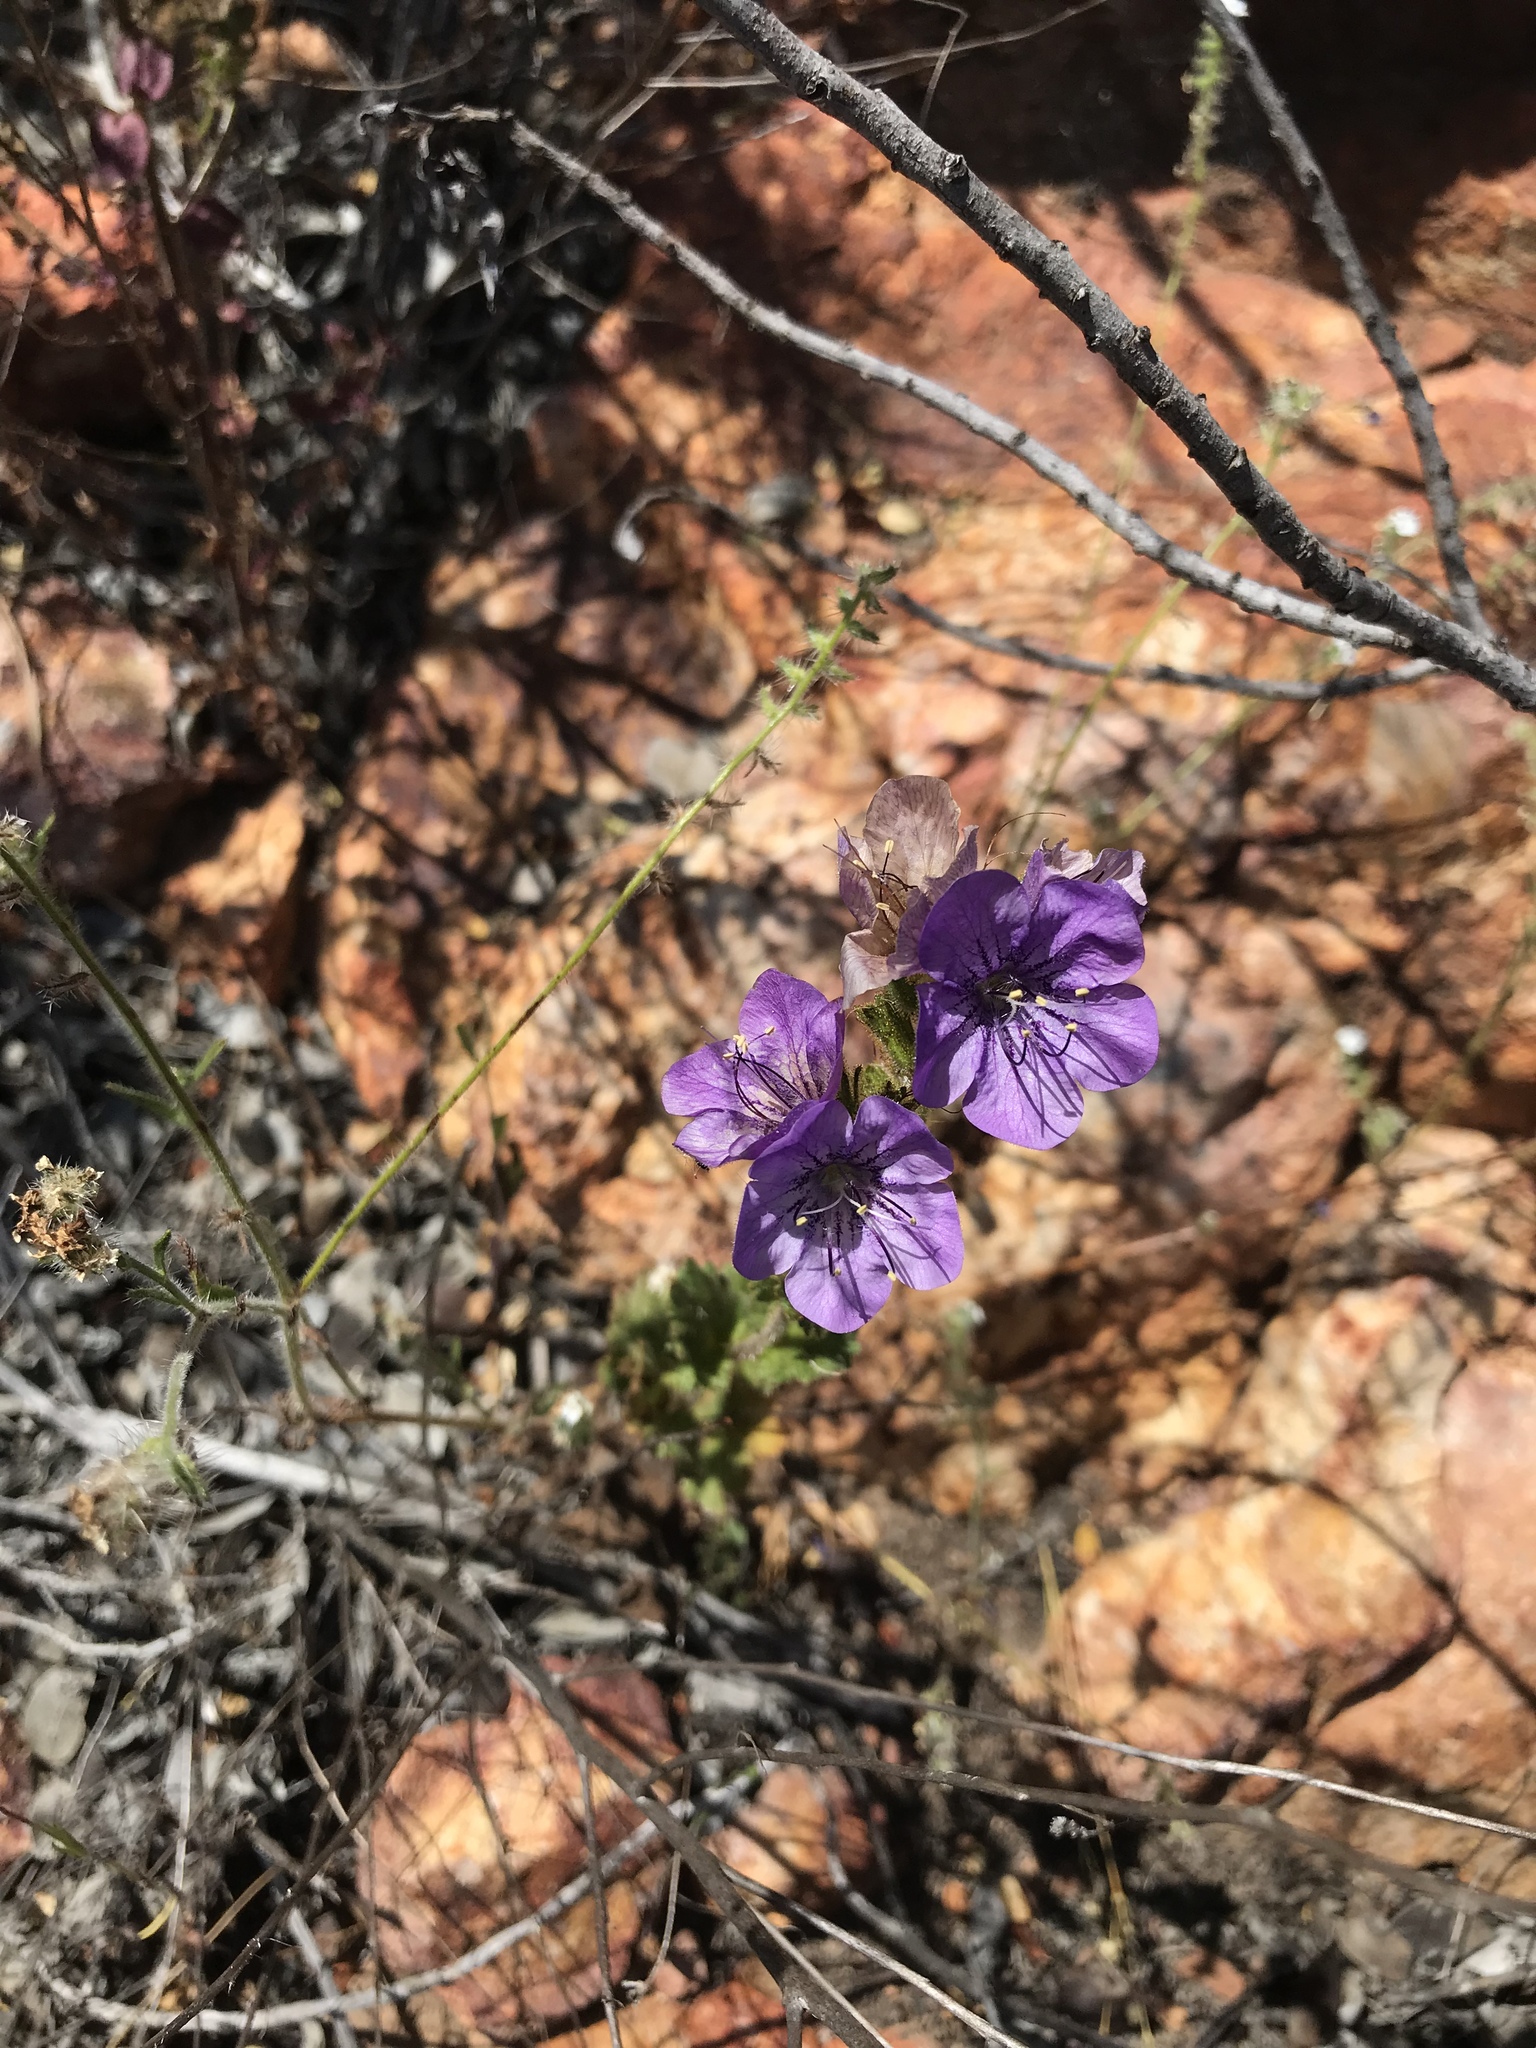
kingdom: Plantae
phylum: Tracheophyta
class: Magnoliopsida
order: Boraginales
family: Hydrophyllaceae
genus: Phacelia
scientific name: Phacelia grandiflora
